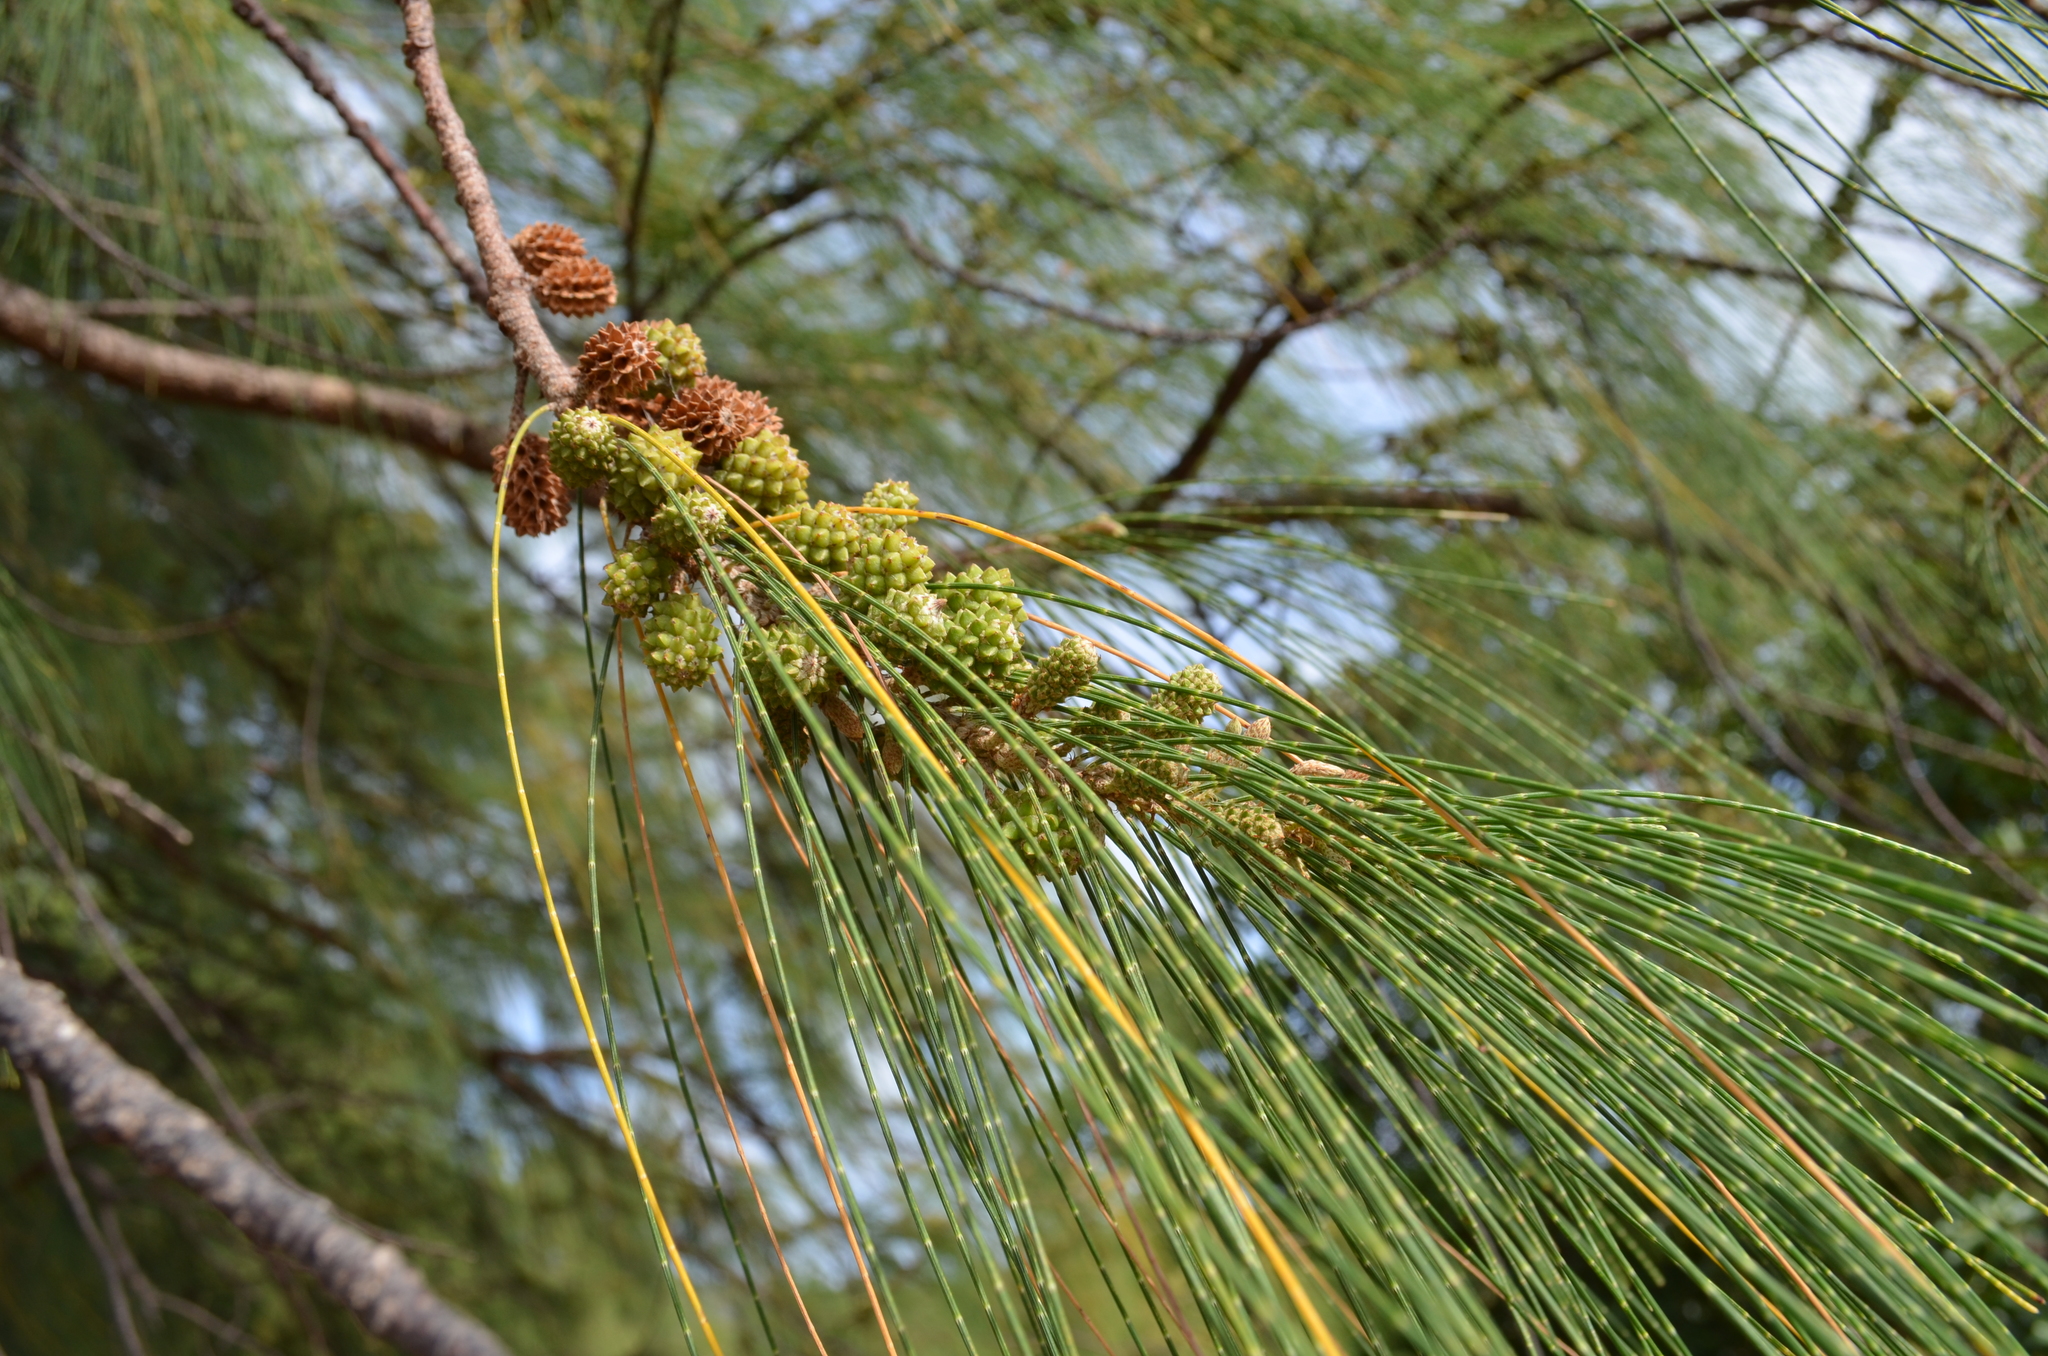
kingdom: Plantae
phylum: Tracheophyta
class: Magnoliopsida
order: Fagales
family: Casuarinaceae
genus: Casuarina
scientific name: Casuarina equisetifolia
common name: Beach sheoak
